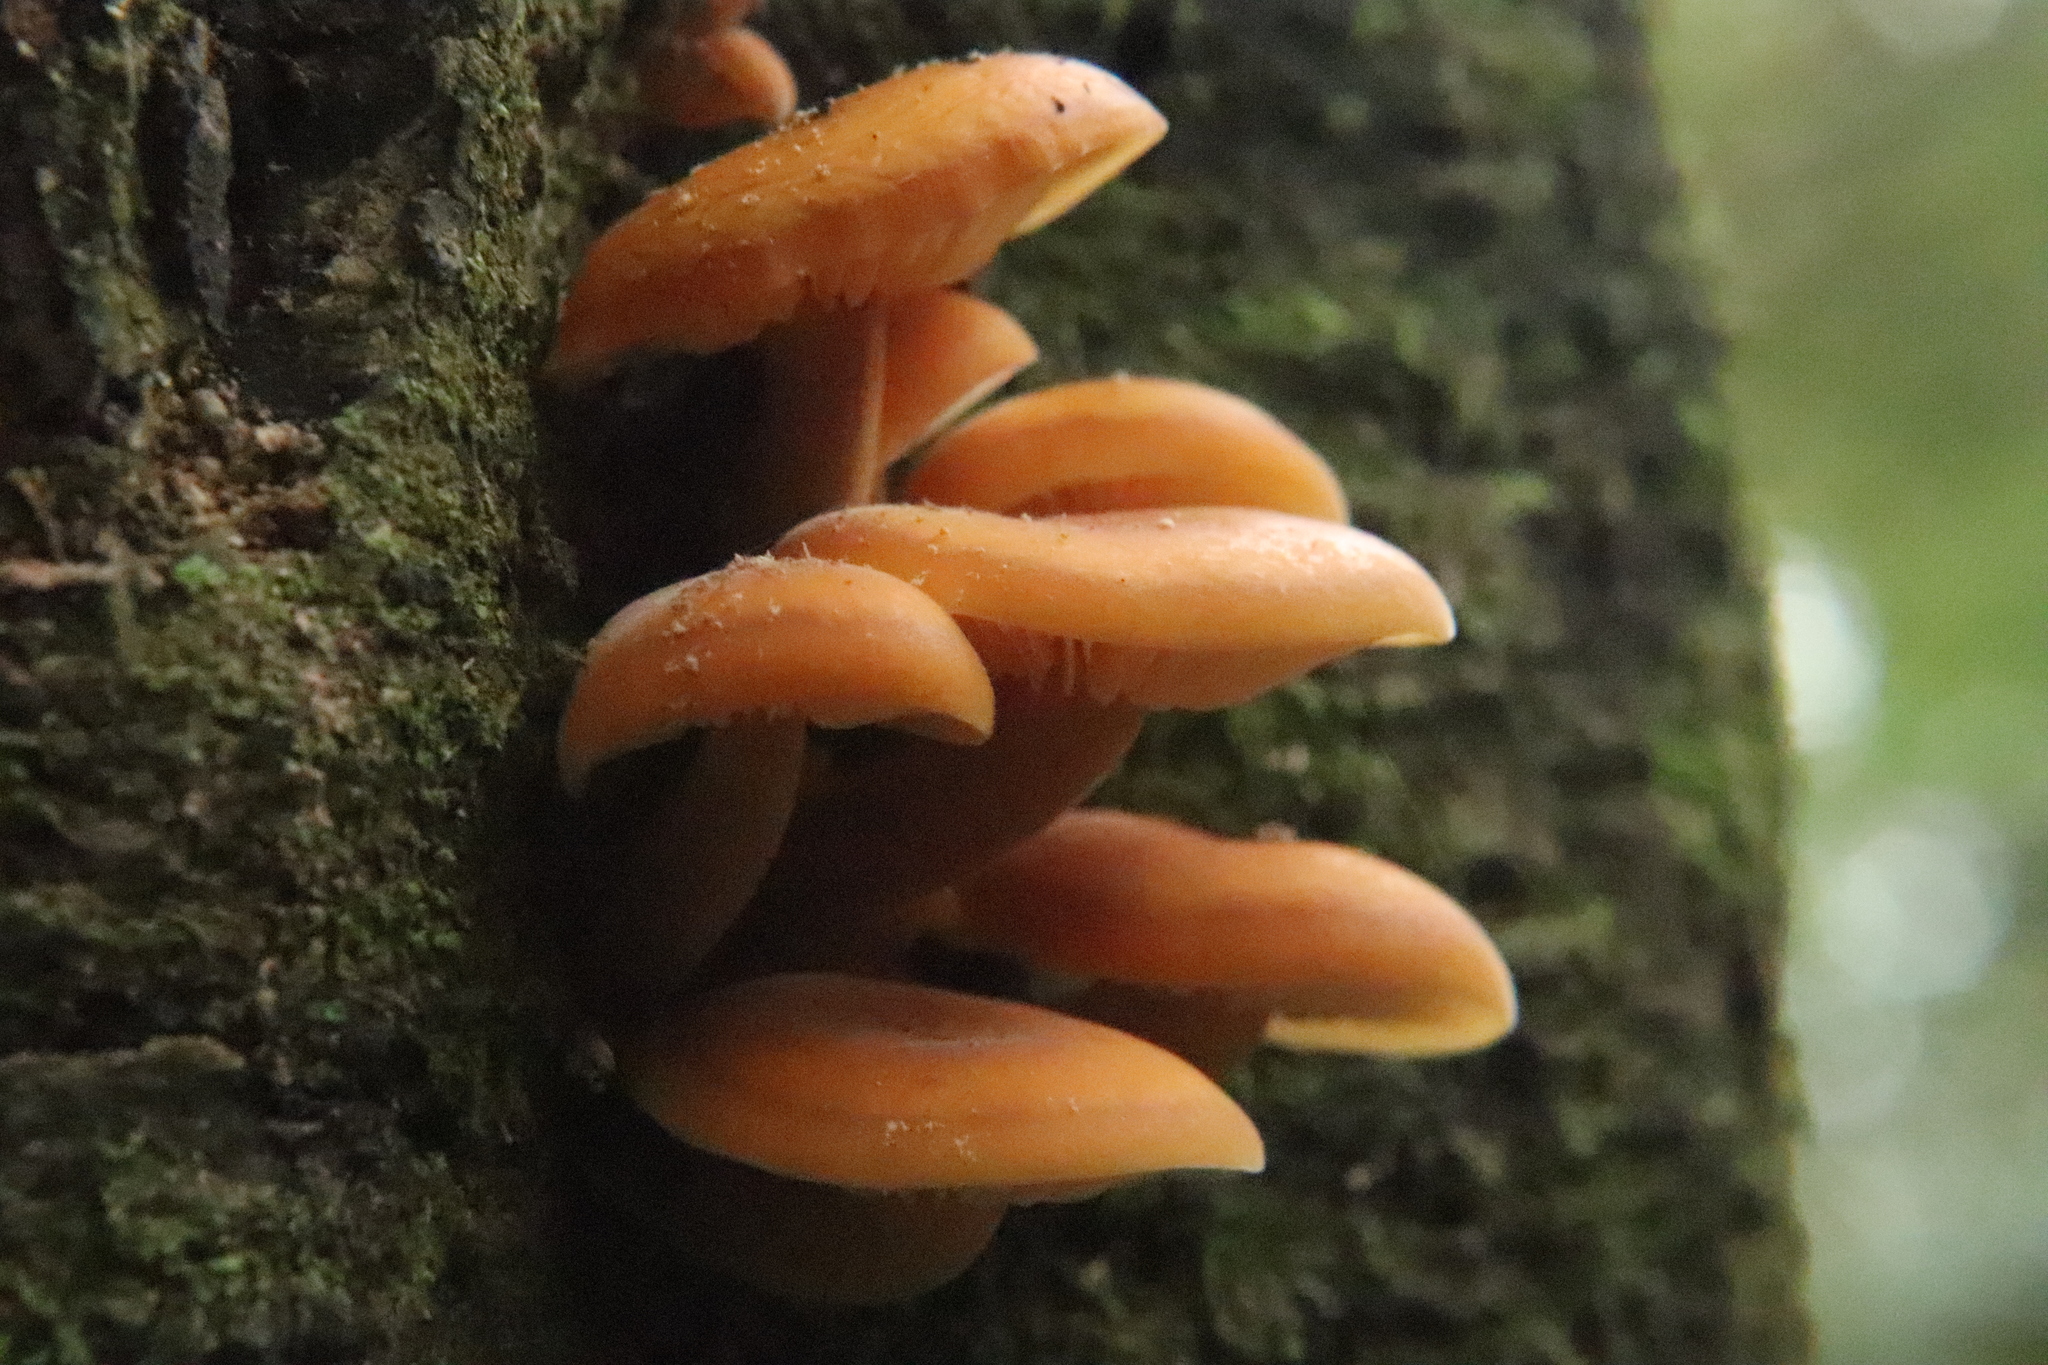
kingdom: Fungi
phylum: Basidiomycota
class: Agaricomycetes
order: Agaricales
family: Physalacriaceae
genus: Flammulina
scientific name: Flammulina velutipes
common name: Velvet shank
